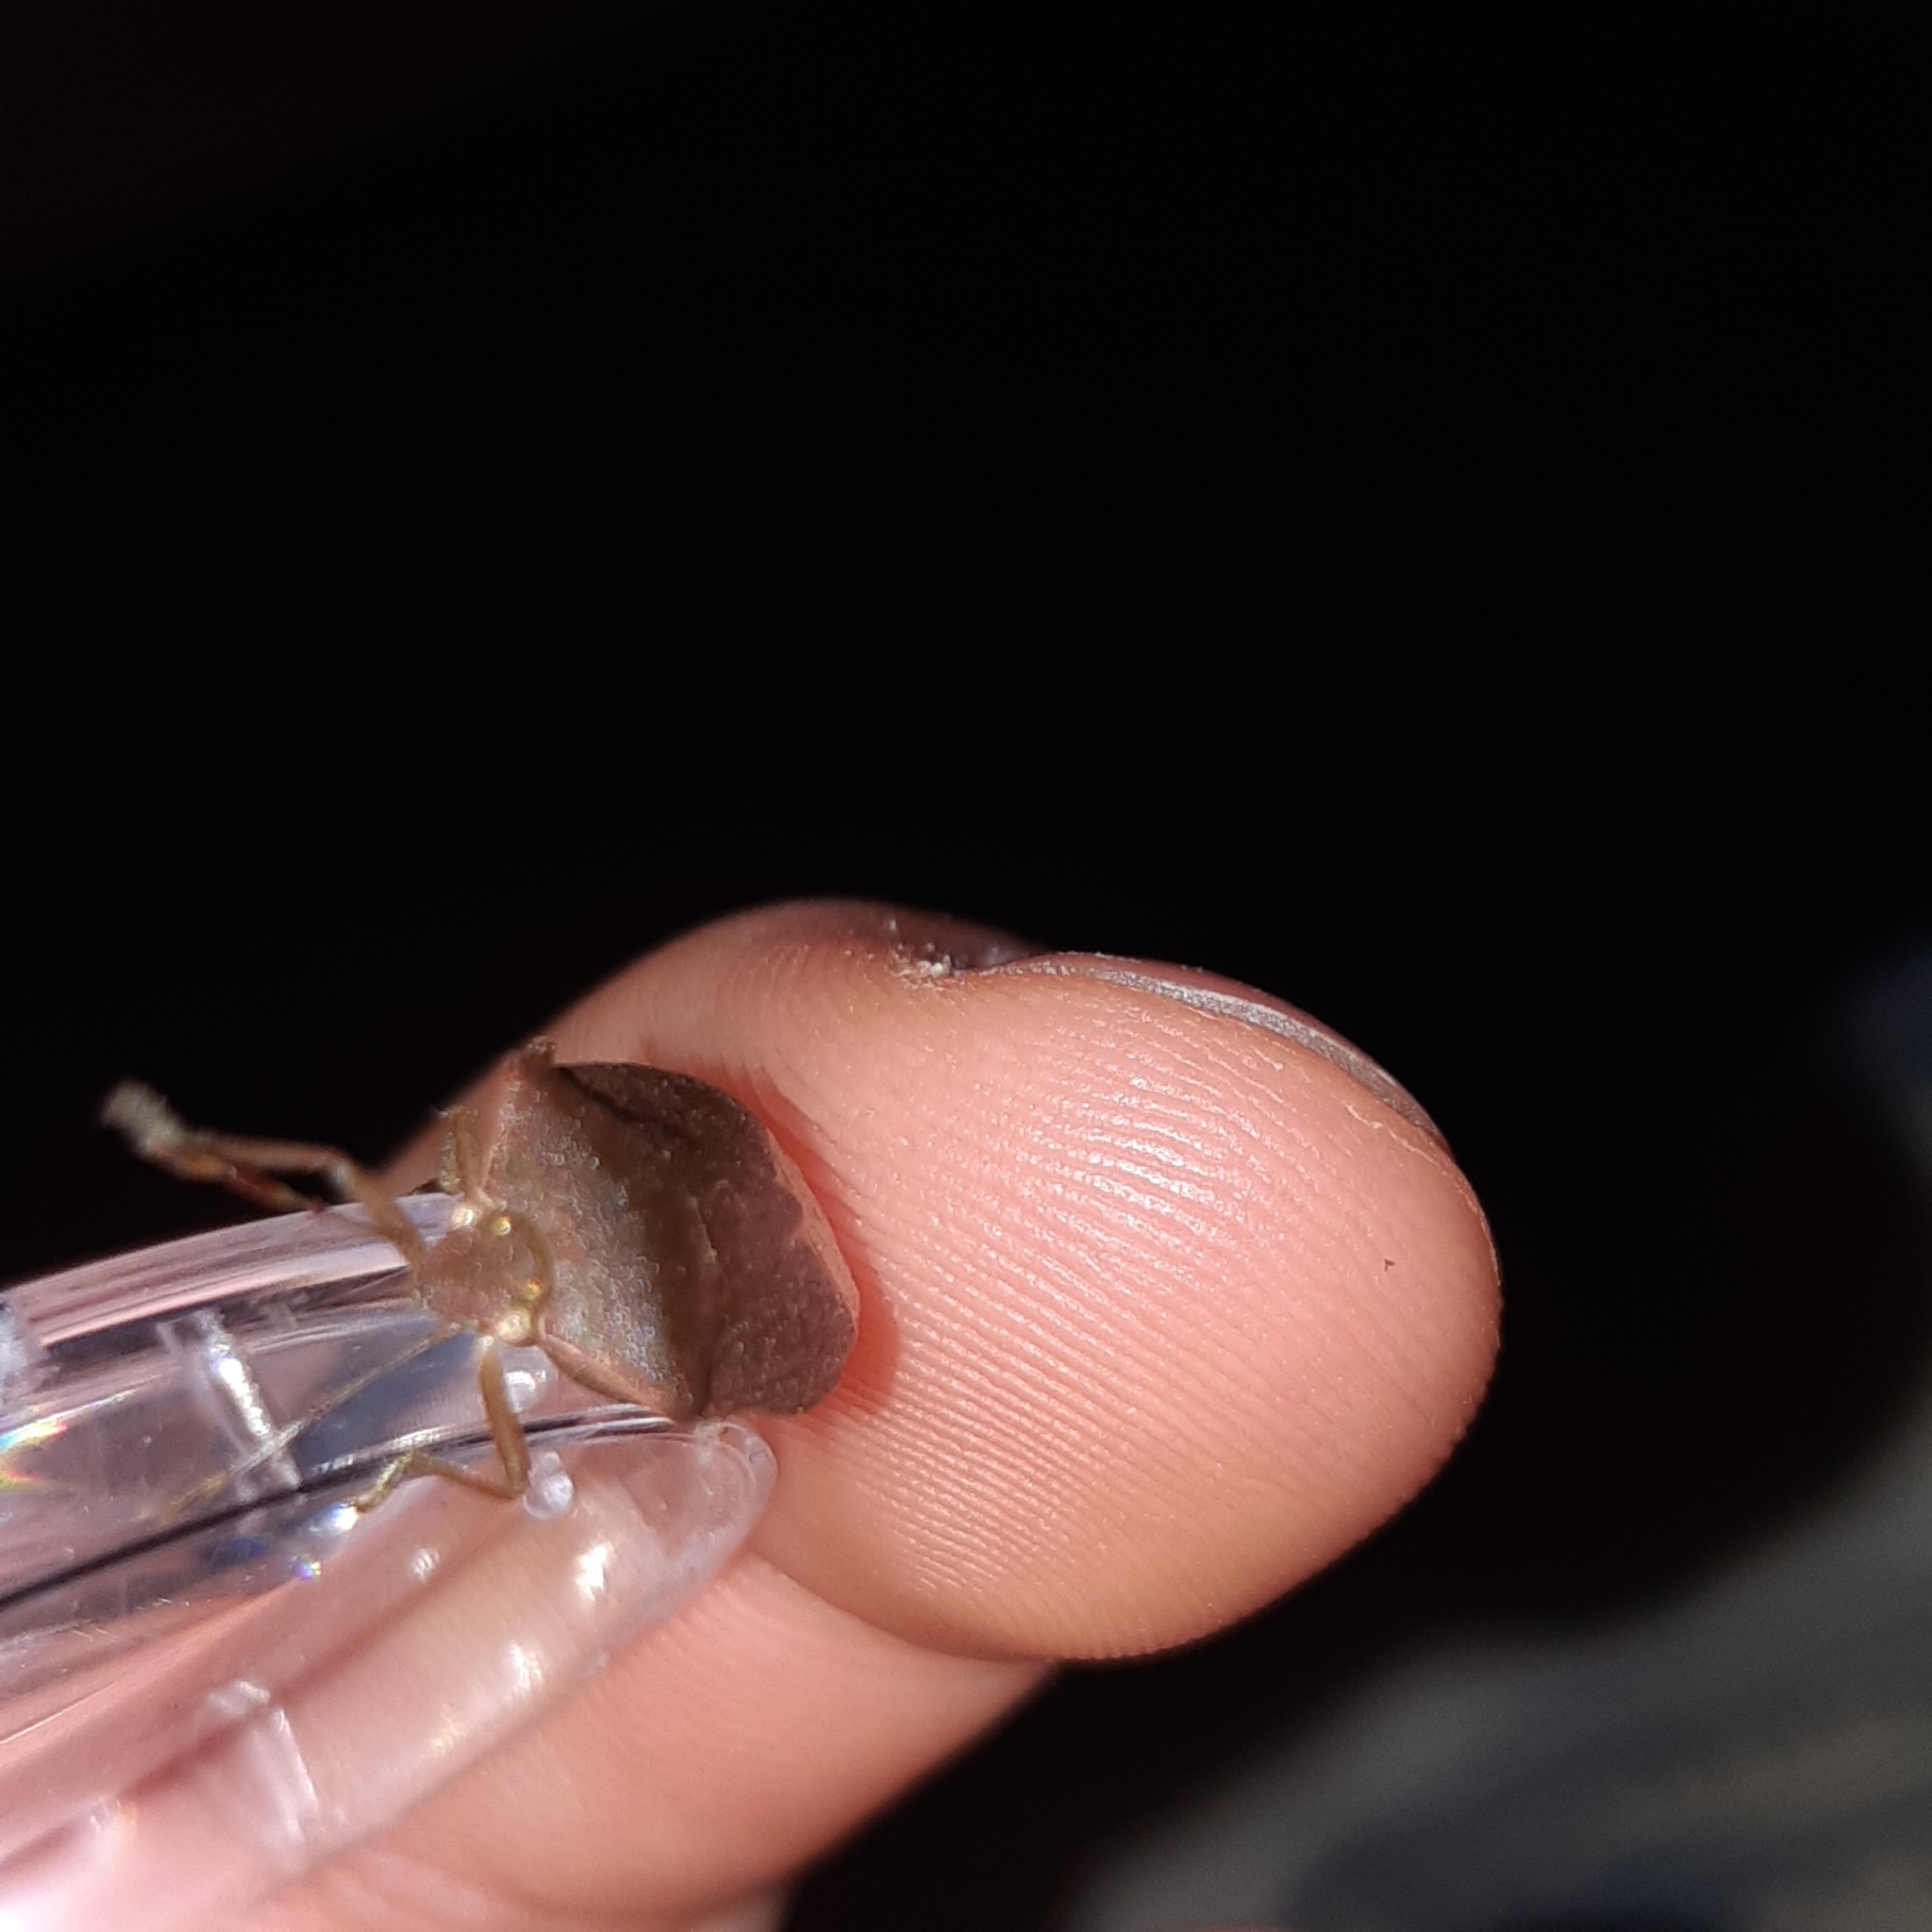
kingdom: Animalia
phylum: Arthropoda
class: Insecta
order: Hemiptera
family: Pentatomidae
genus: Nezara
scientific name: Nezara viridula
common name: Southern green stink bug
